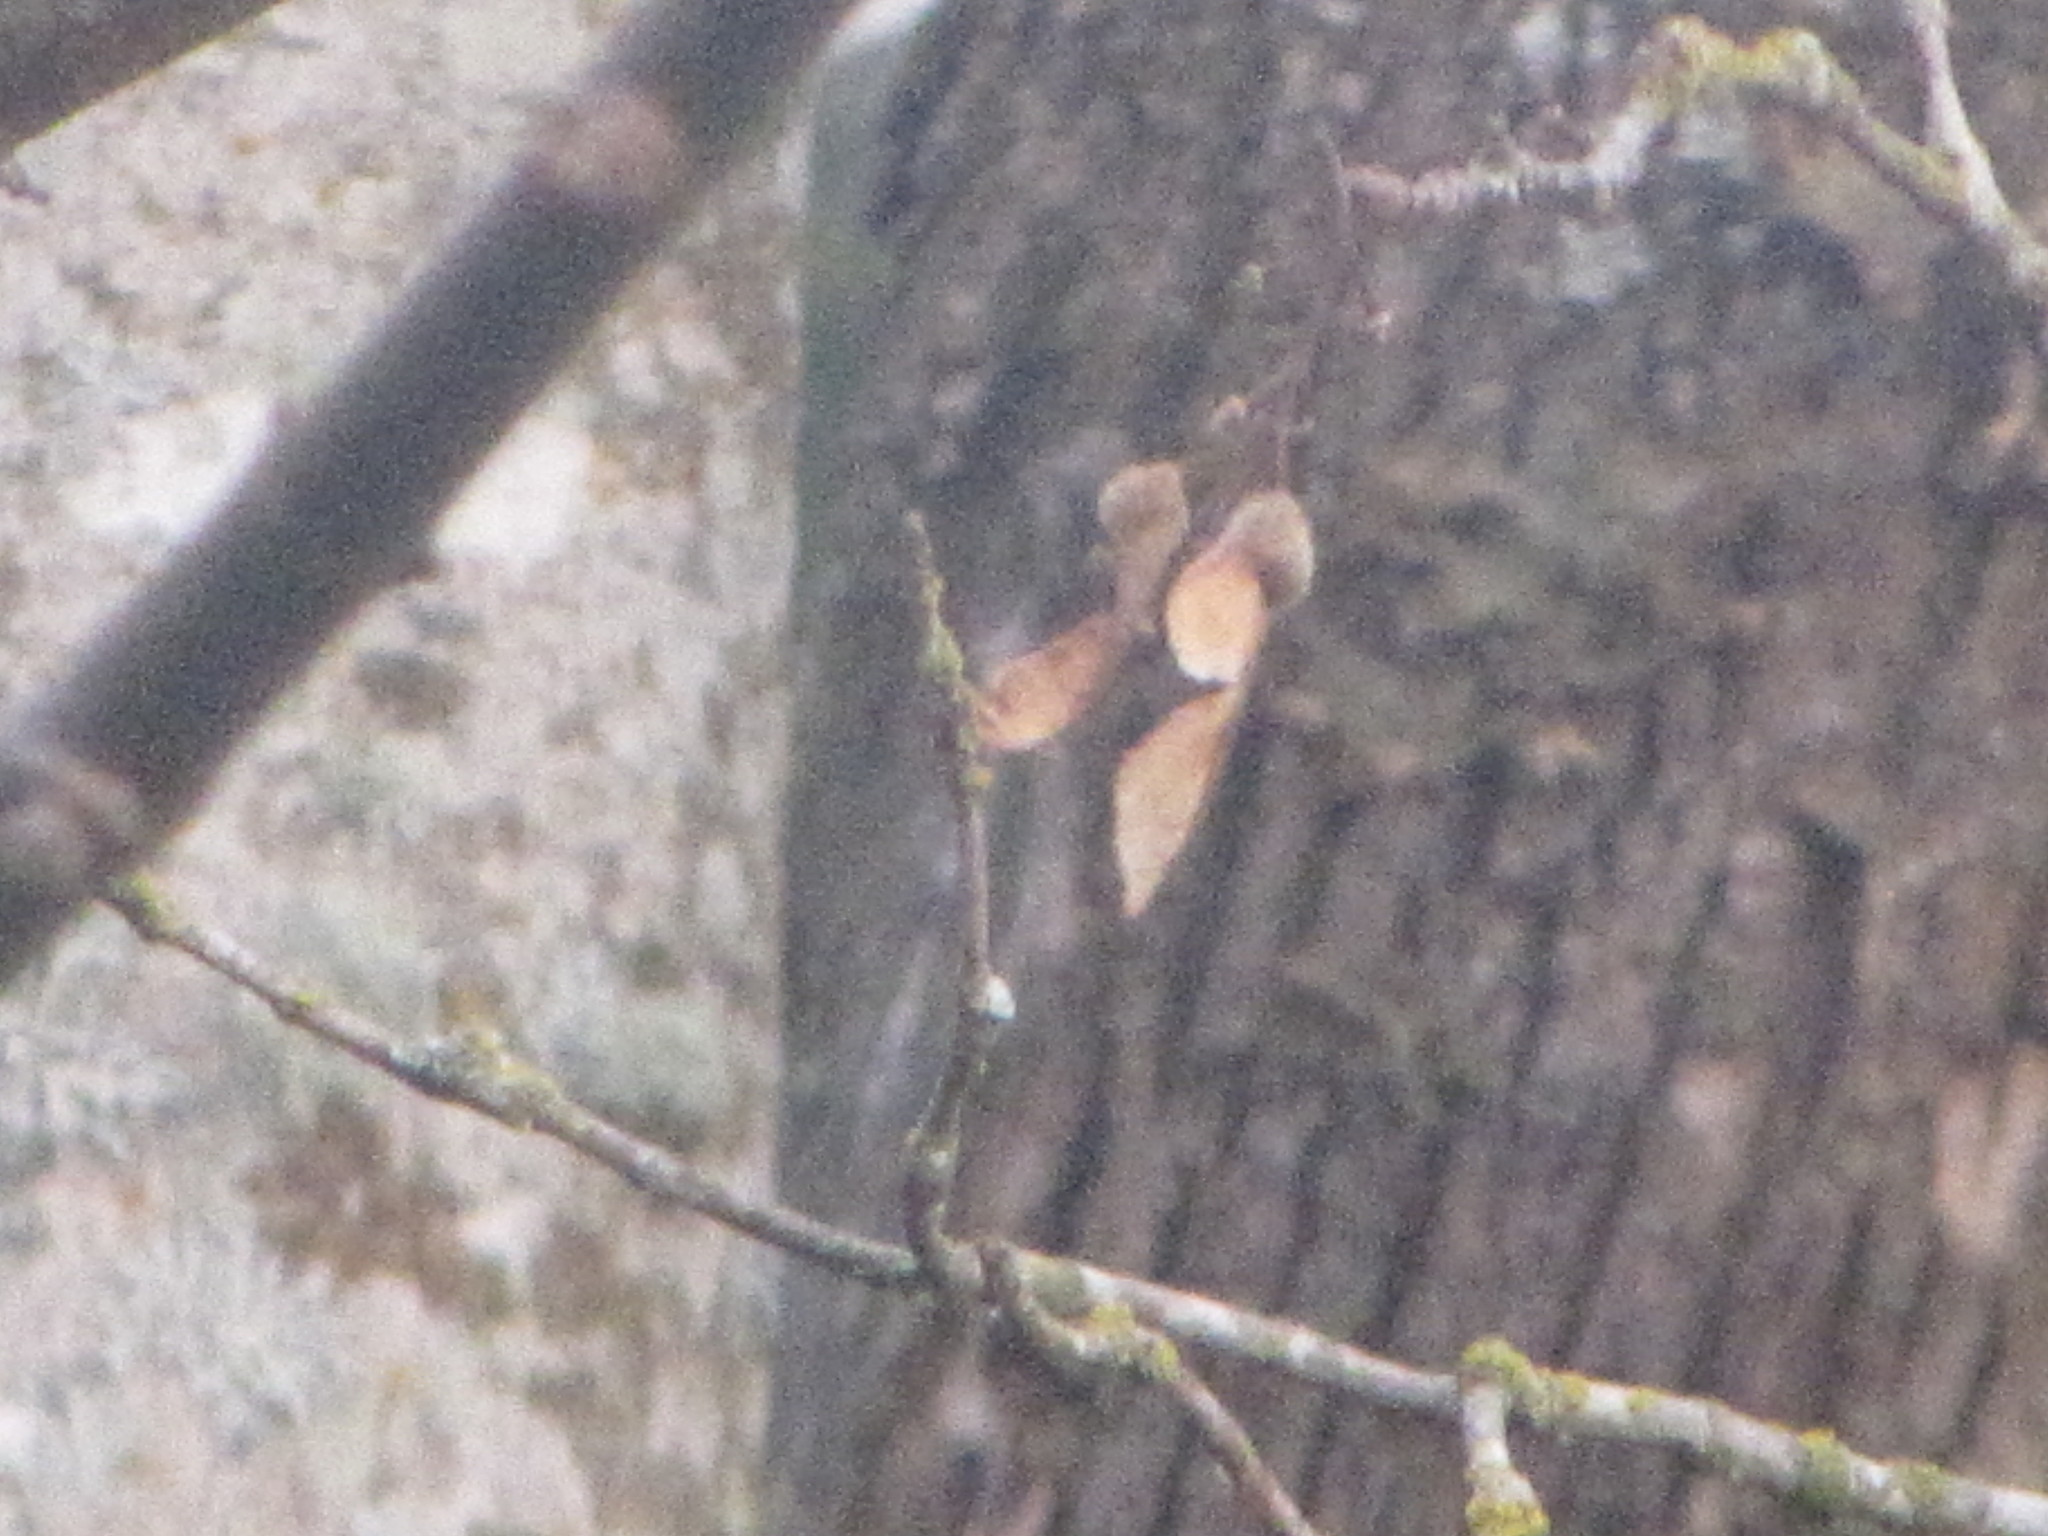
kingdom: Plantae
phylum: Tracheophyta
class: Magnoliopsida
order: Sapindales
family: Sapindaceae
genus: Acer
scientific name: Acer macrophyllum
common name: Oregon maple
